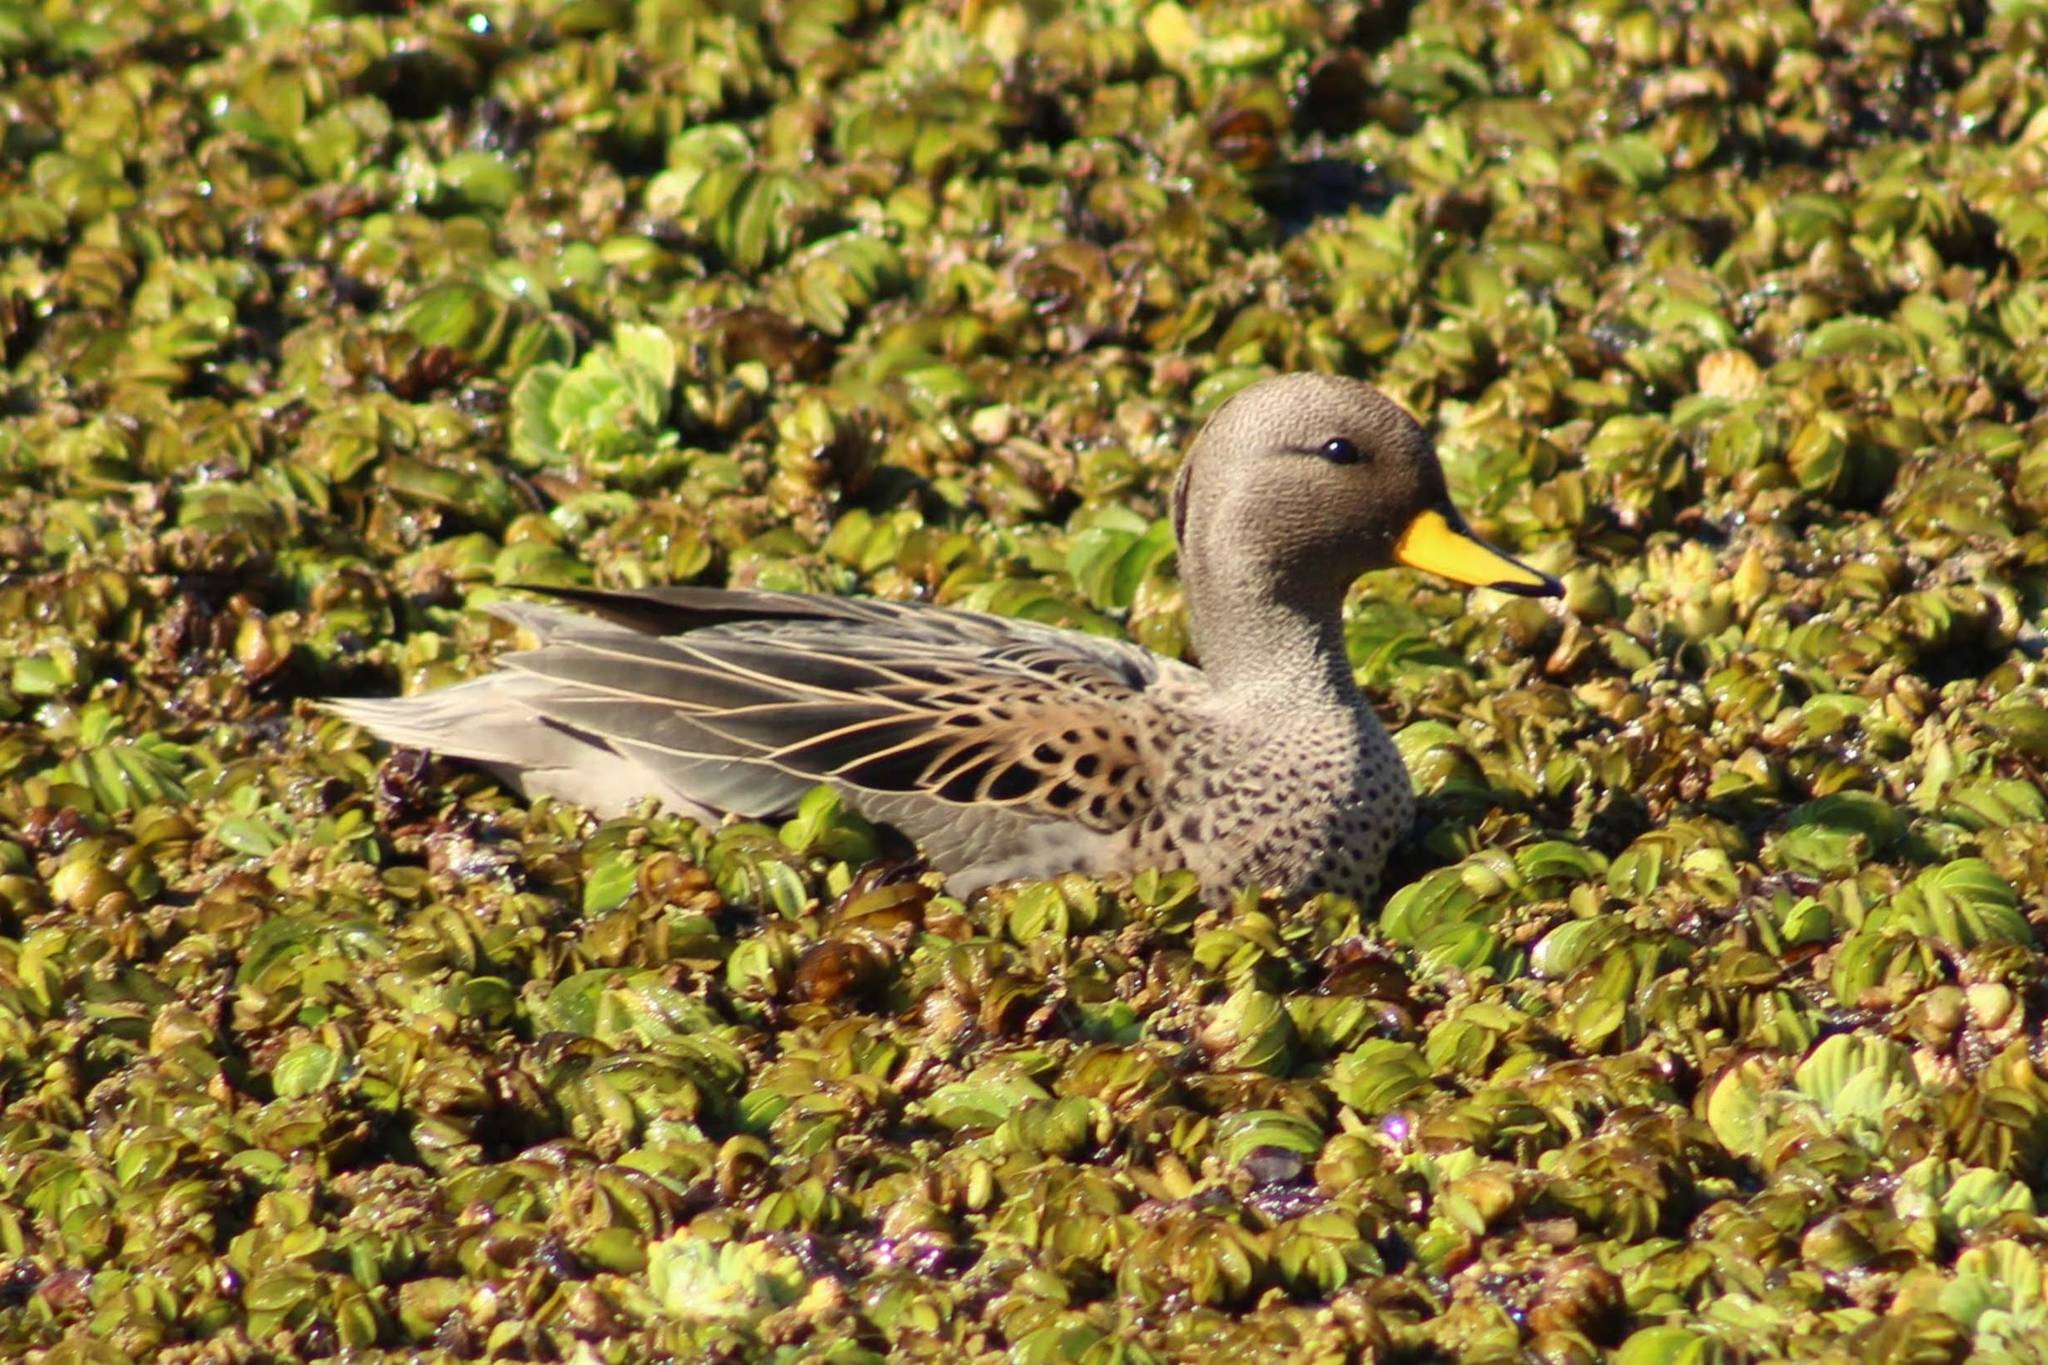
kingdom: Animalia
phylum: Chordata
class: Aves
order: Anseriformes
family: Anatidae
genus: Anas
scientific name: Anas flavirostris
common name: Yellow-billed teal
